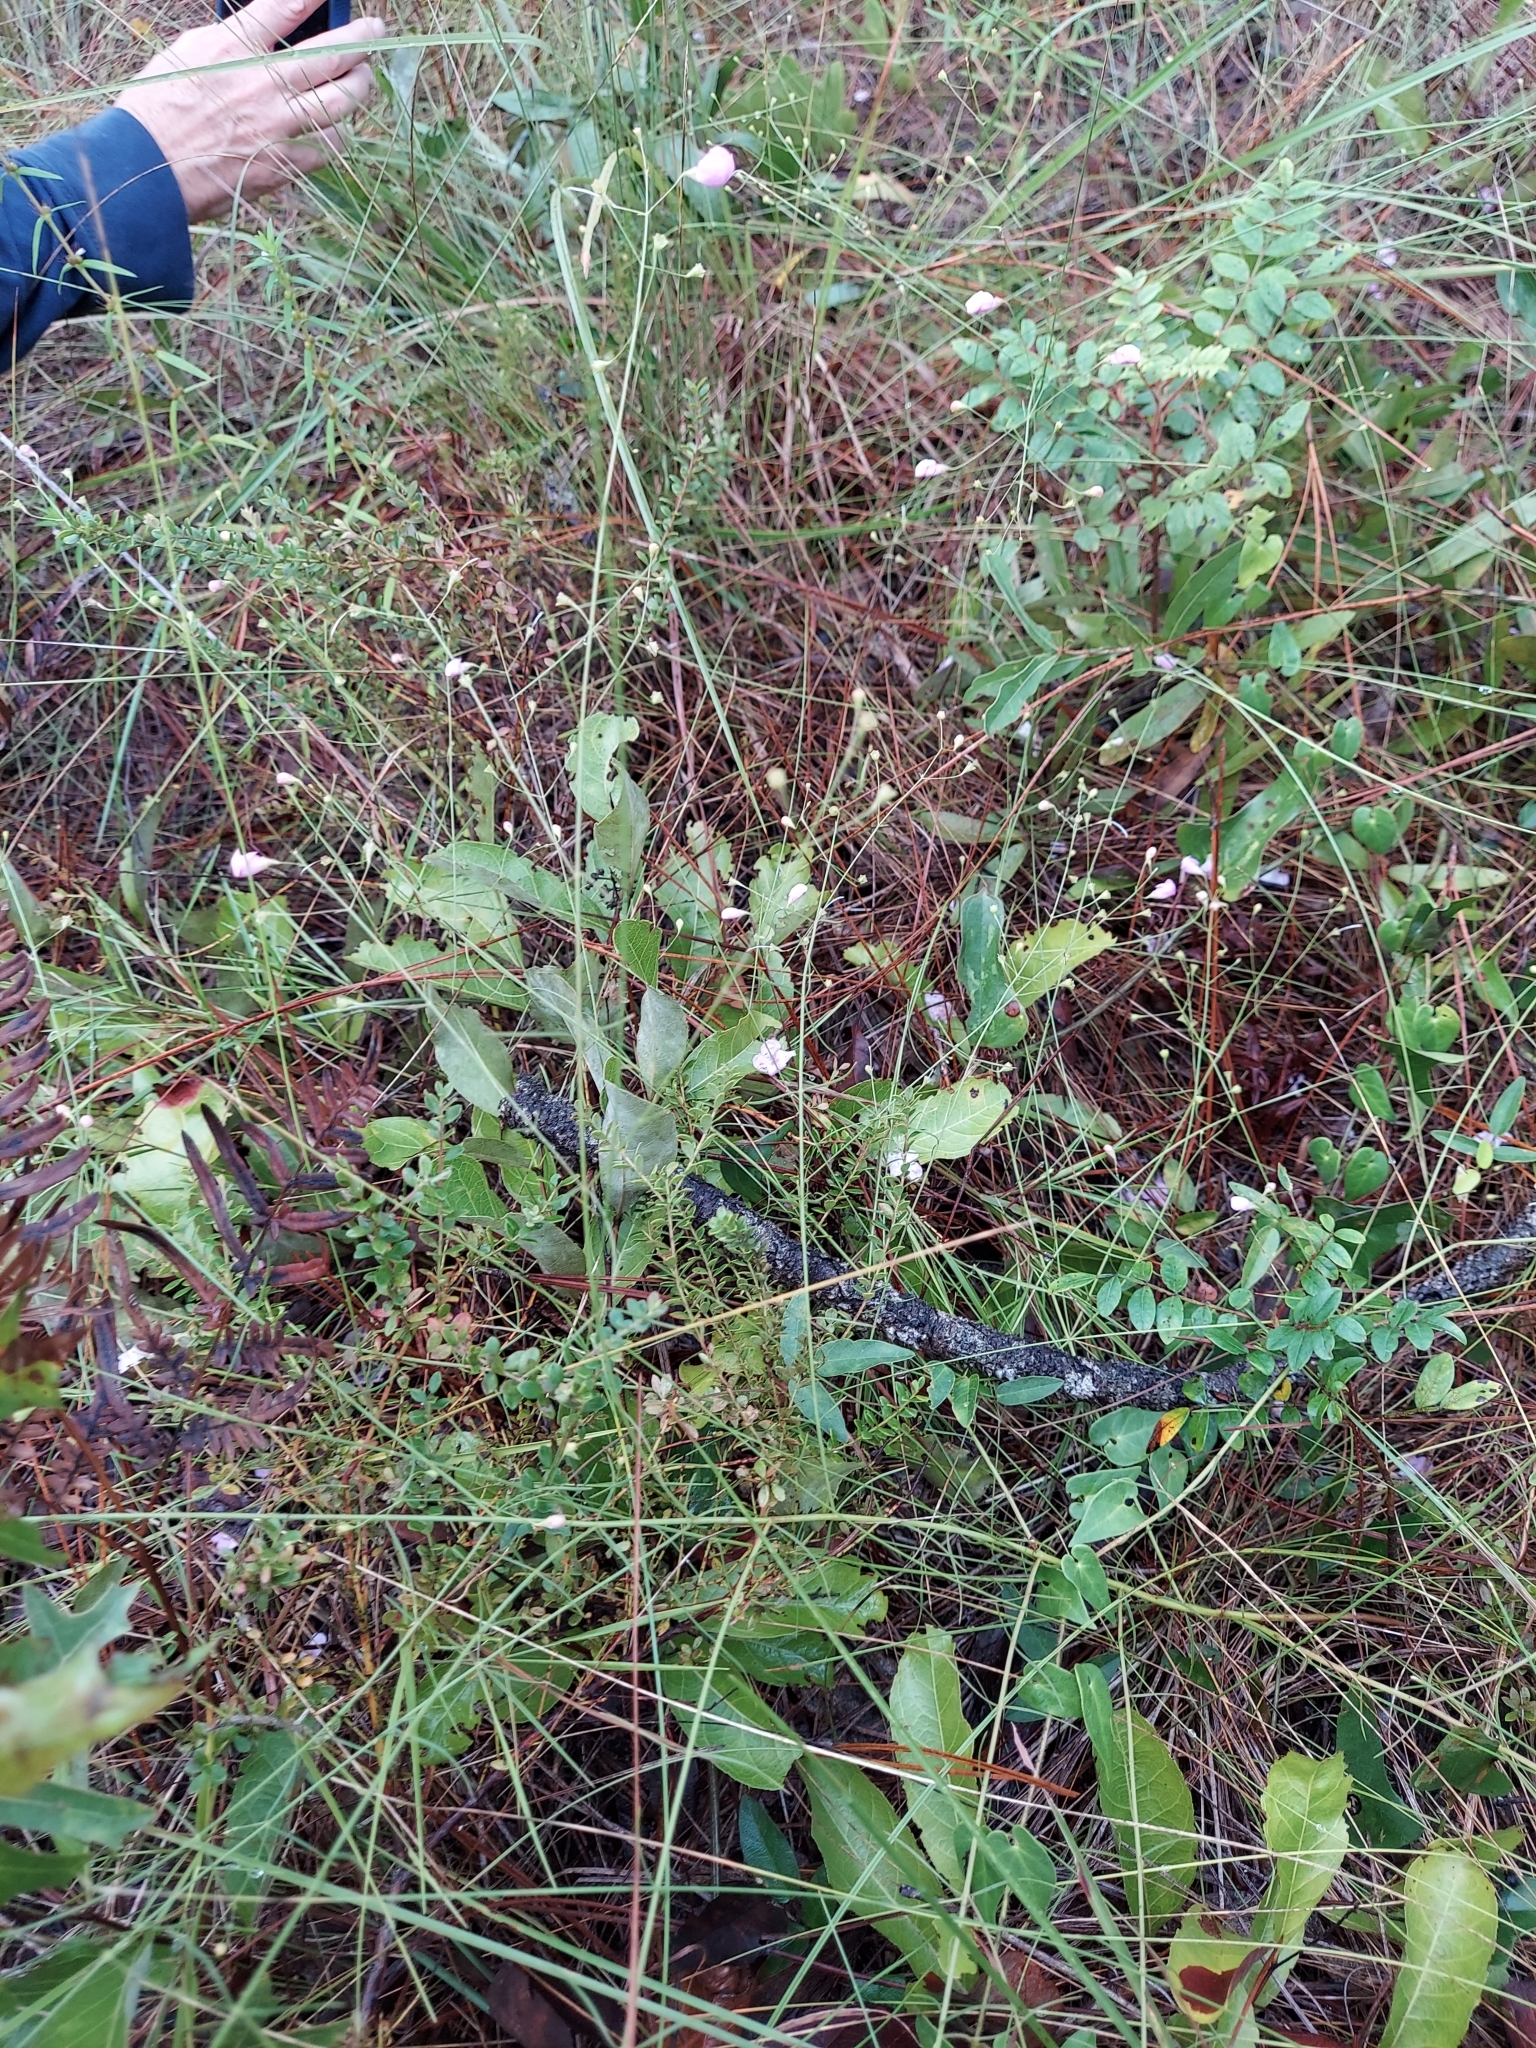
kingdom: Plantae
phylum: Tracheophyta
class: Magnoliopsida
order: Lamiales
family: Orobanchaceae
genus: Agalinis
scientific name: Agalinis divaricata
